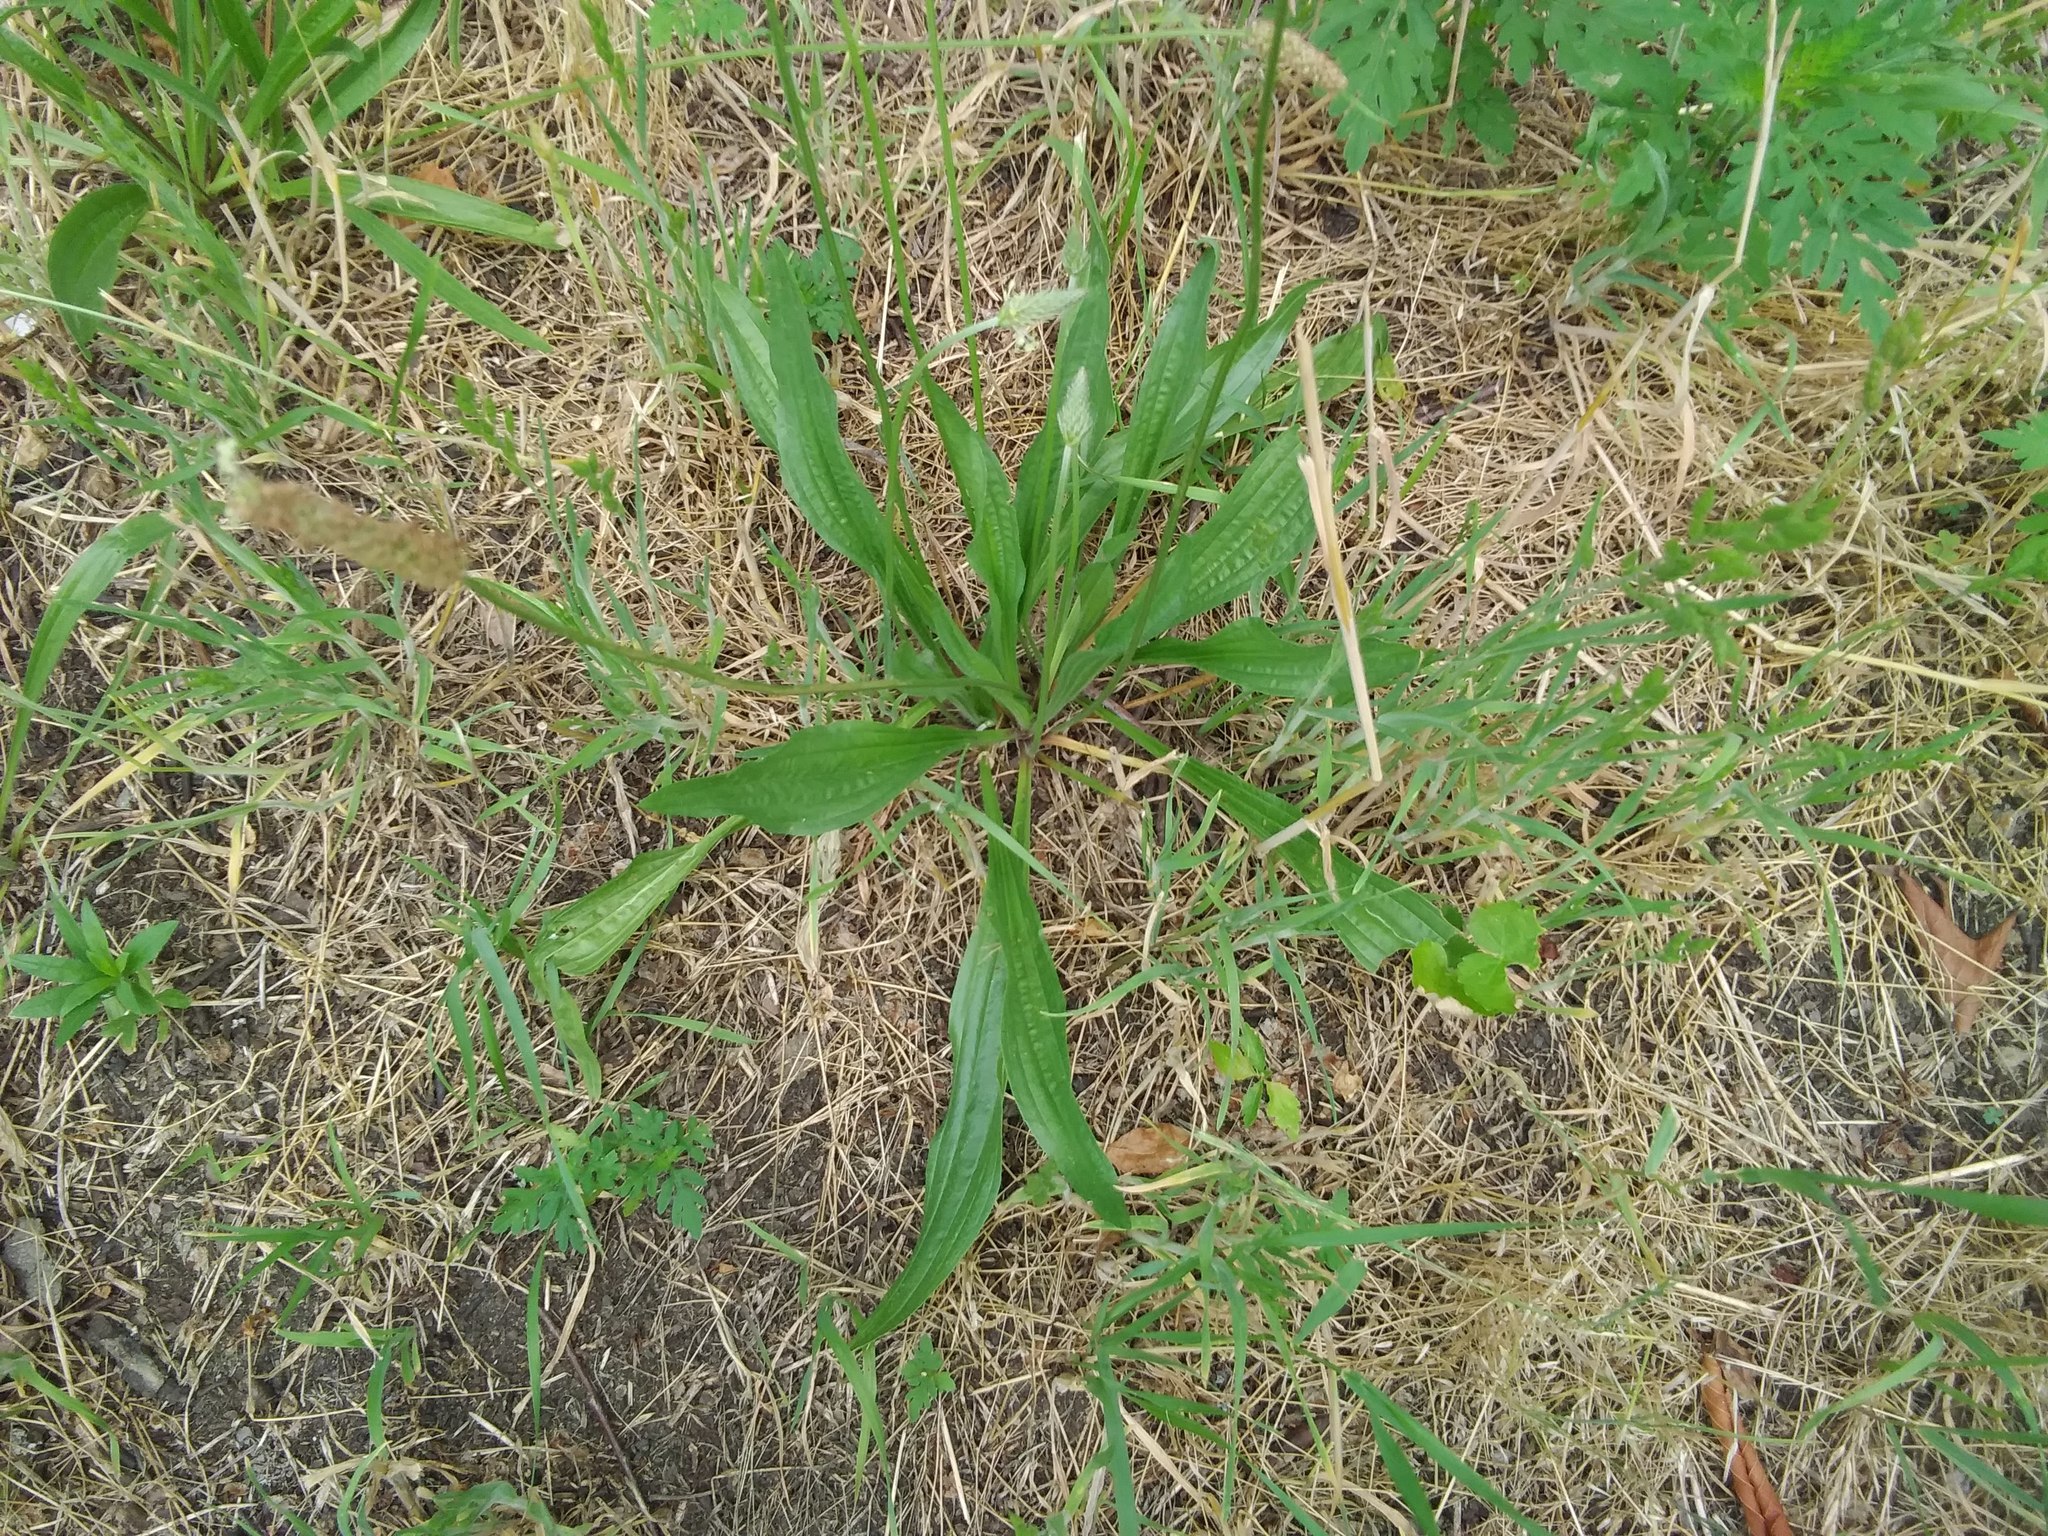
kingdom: Plantae
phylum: Tracheophyta
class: Magnoliopsida
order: Lamiales
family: Plantaginaceae
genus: Plantago
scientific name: Plantago lanceolata
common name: Ribwort plantain
